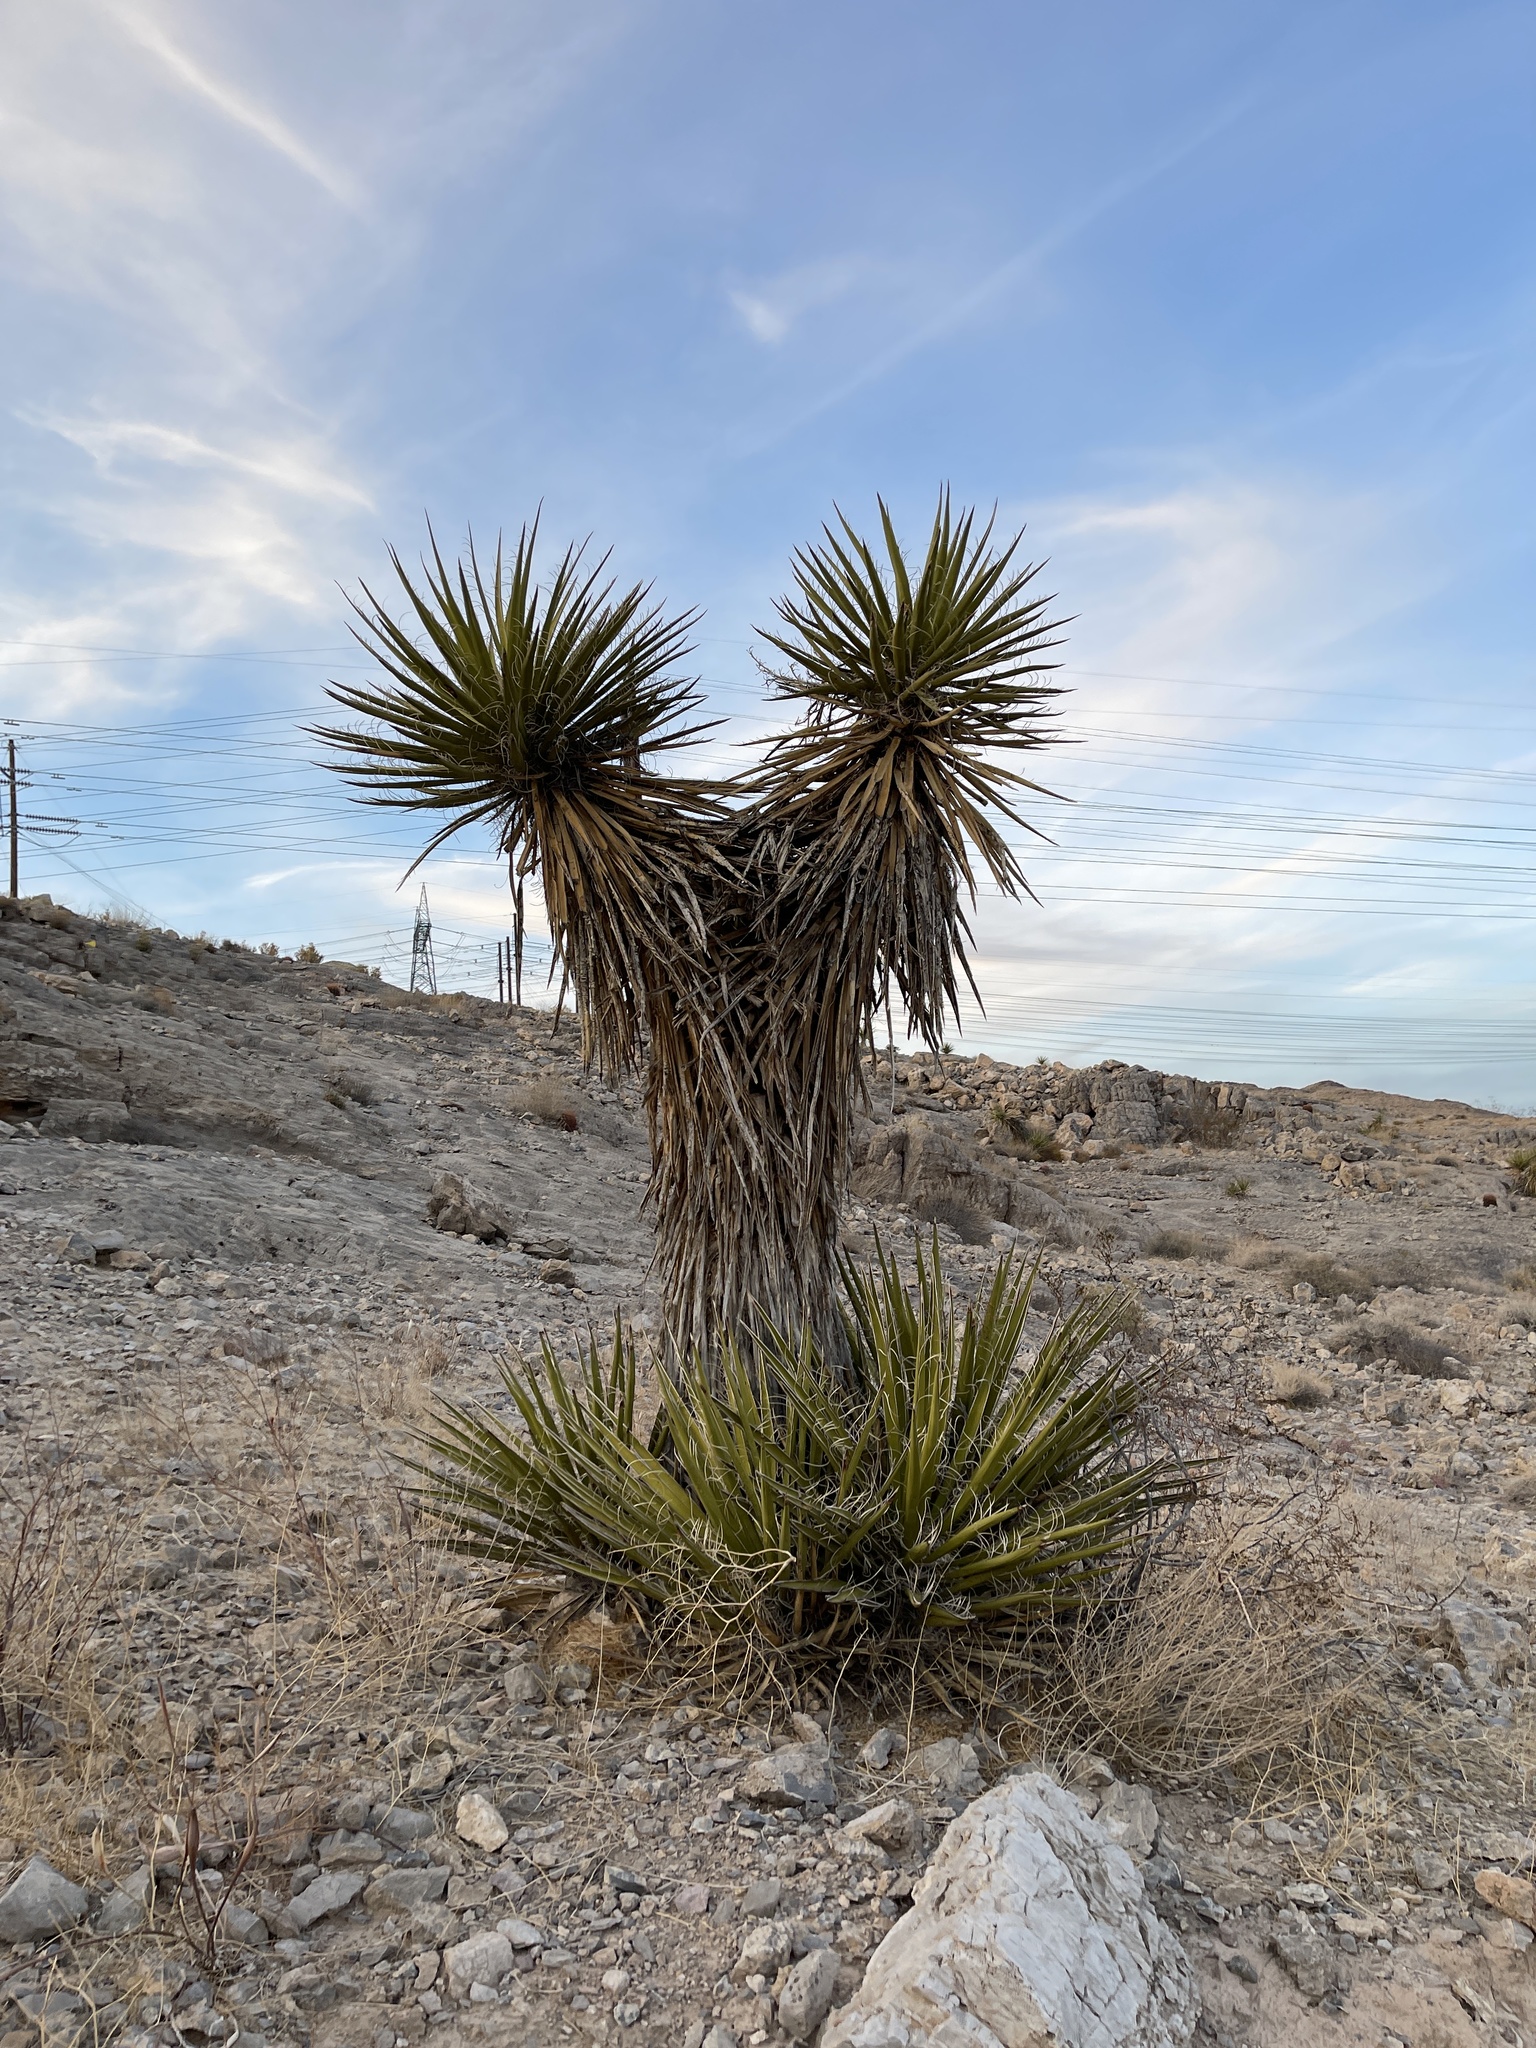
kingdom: Plantae
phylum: Tracheophyta
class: Liliopsida
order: Asparagales
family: Asparagaceae
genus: Yucca
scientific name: Yucca schidigera
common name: Mojave yucca
